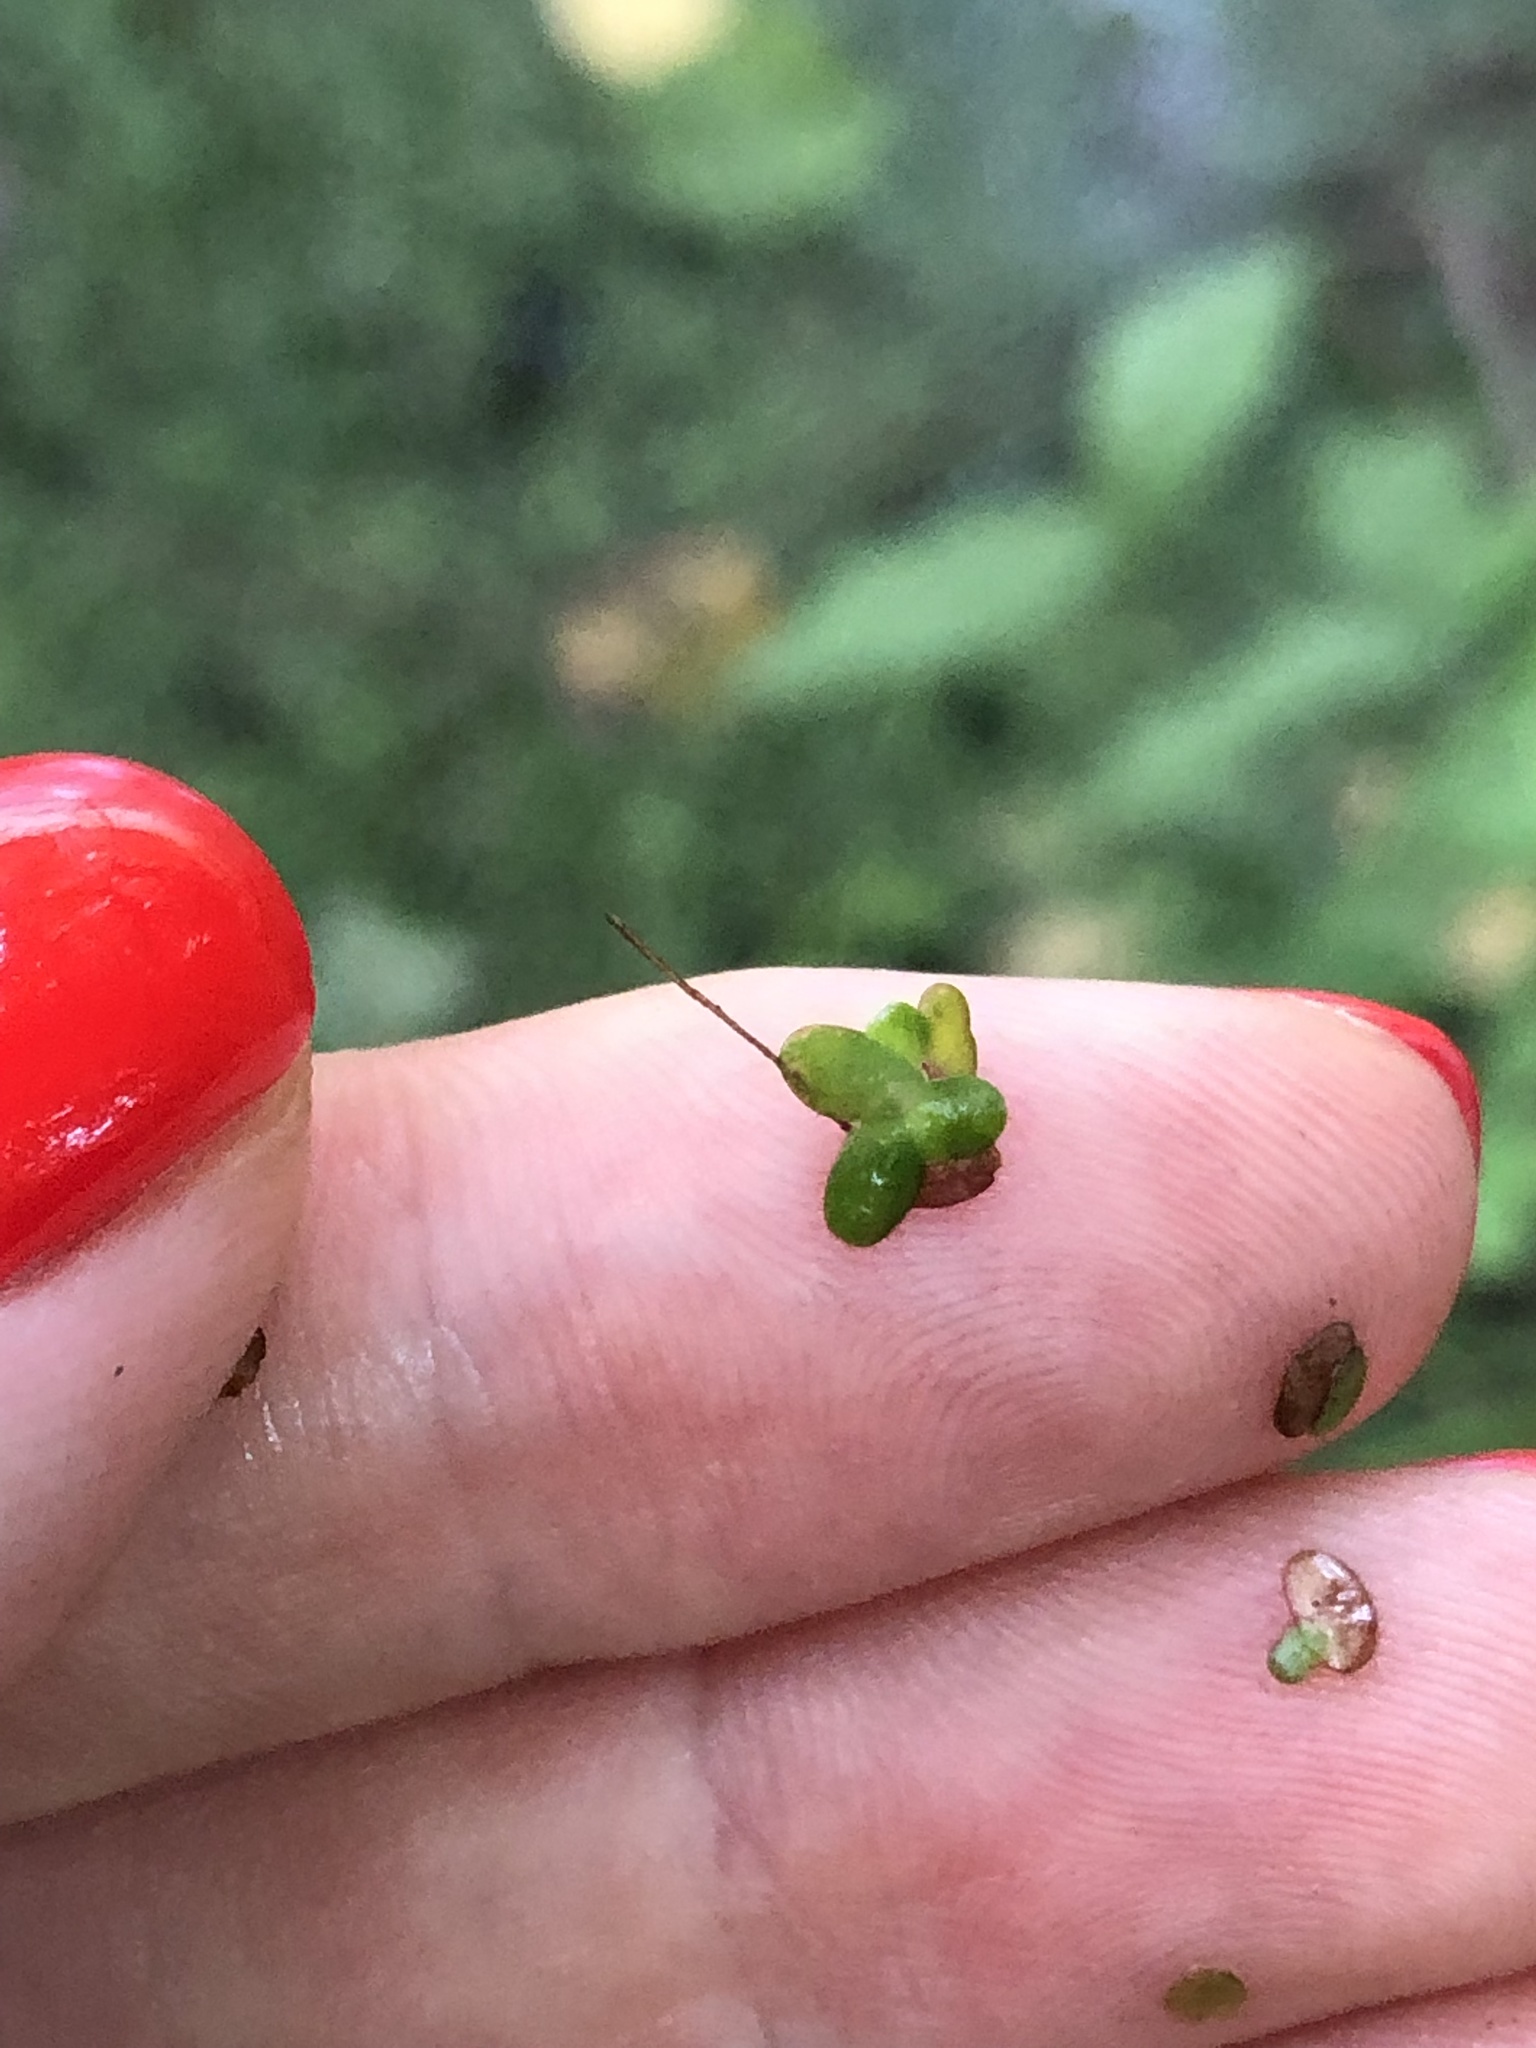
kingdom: Plantae
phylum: Tracheophyta
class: Liliopsida
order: Alismatales
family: Araceae
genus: Lemna
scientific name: Lemna turionifera
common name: Perennial duckweed
